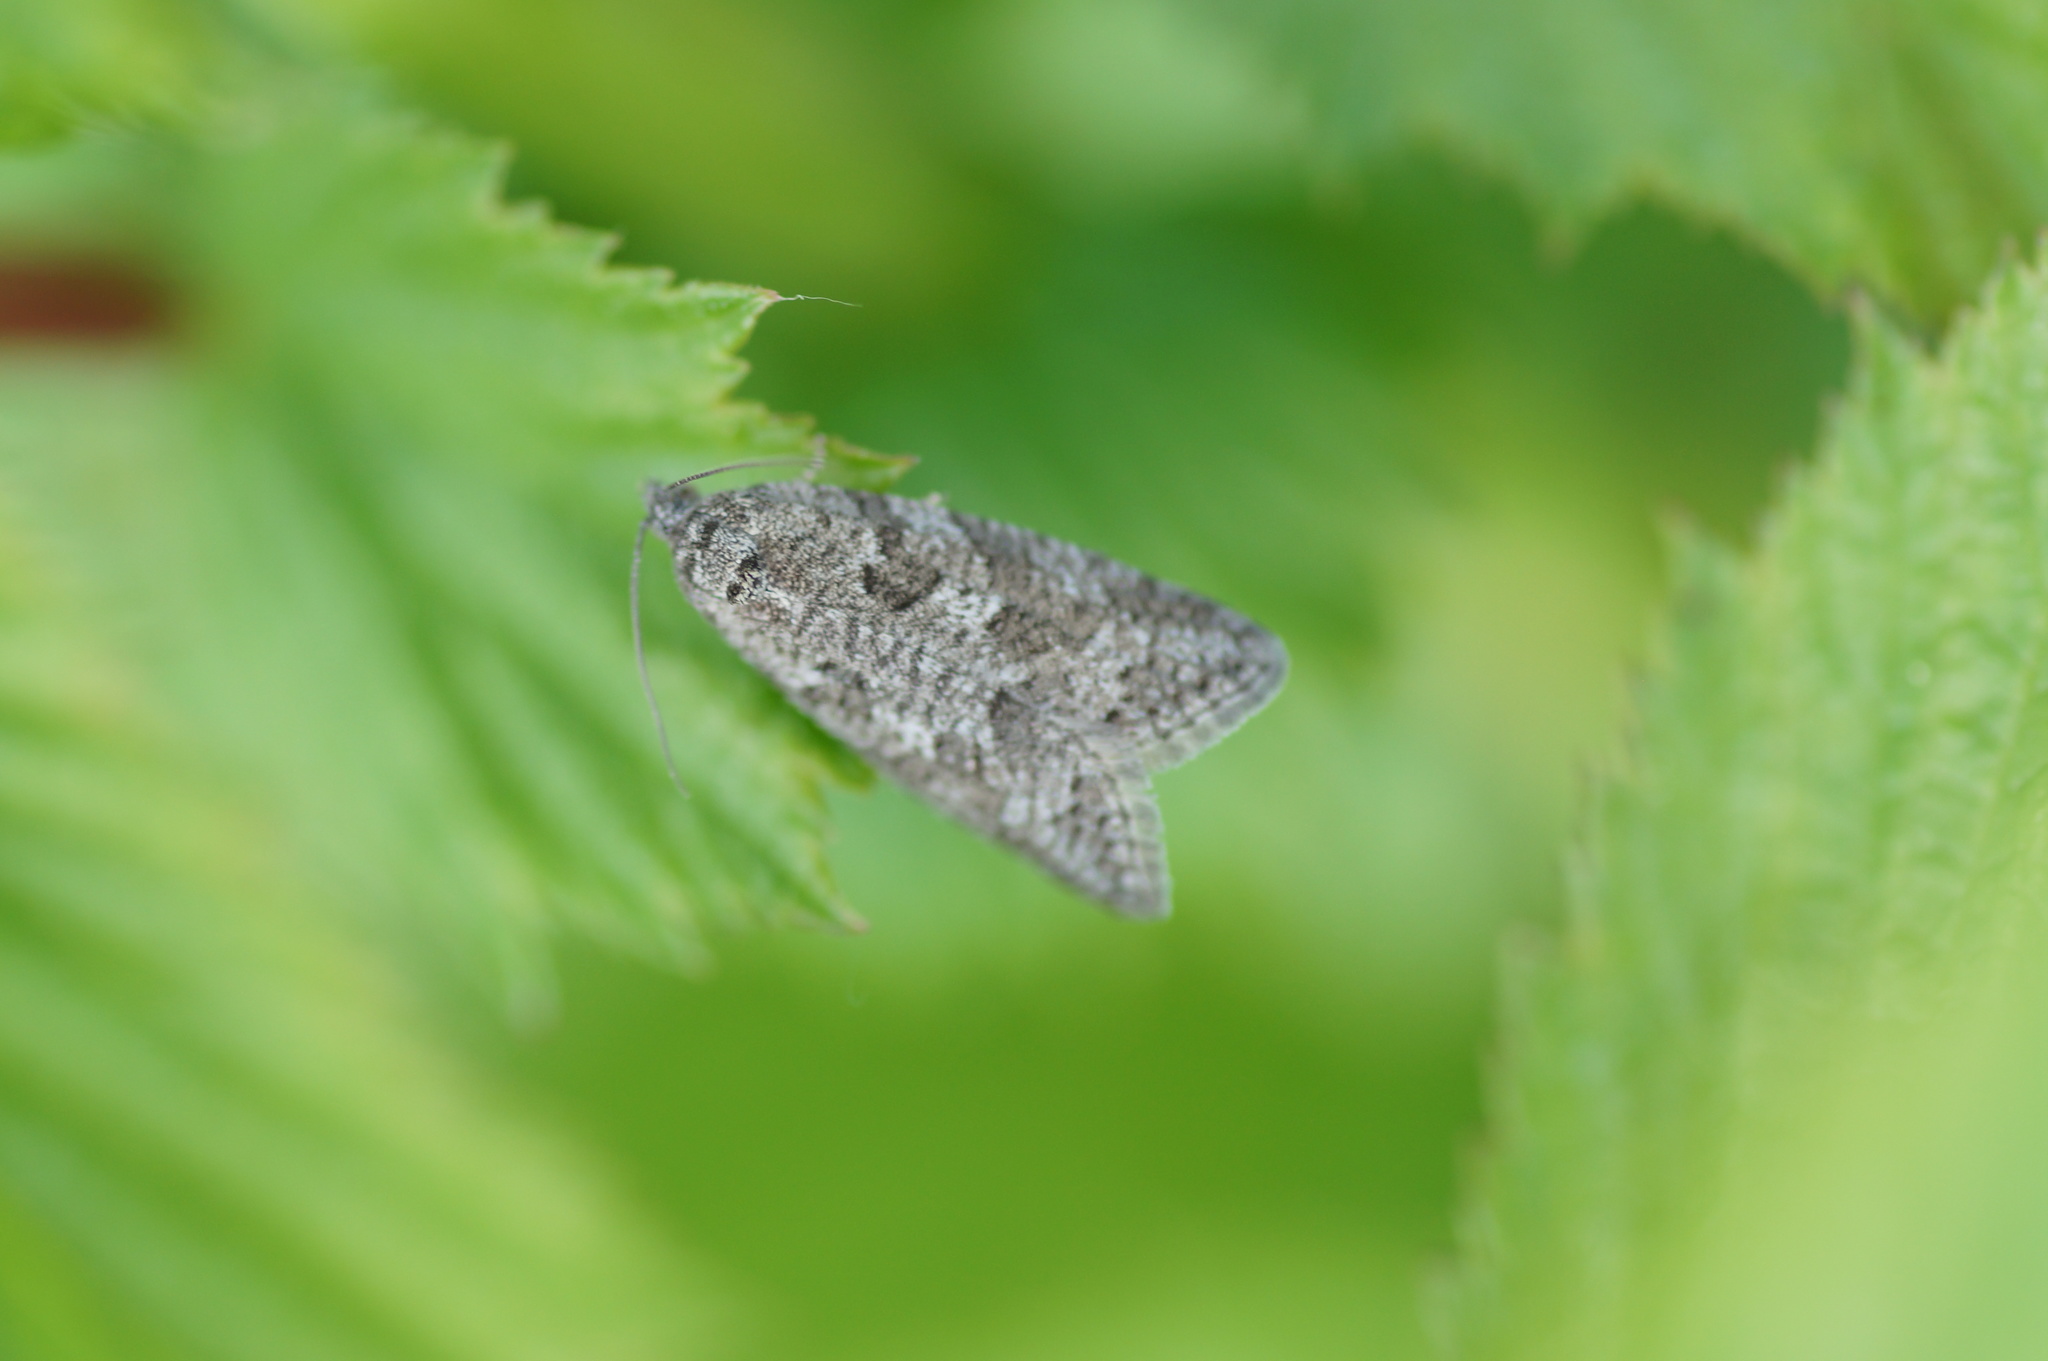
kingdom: Animalia
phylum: Arthropoda
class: Insecta
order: Lepidoptera
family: Tortricidae
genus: Cnephasia
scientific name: Cnephasia
